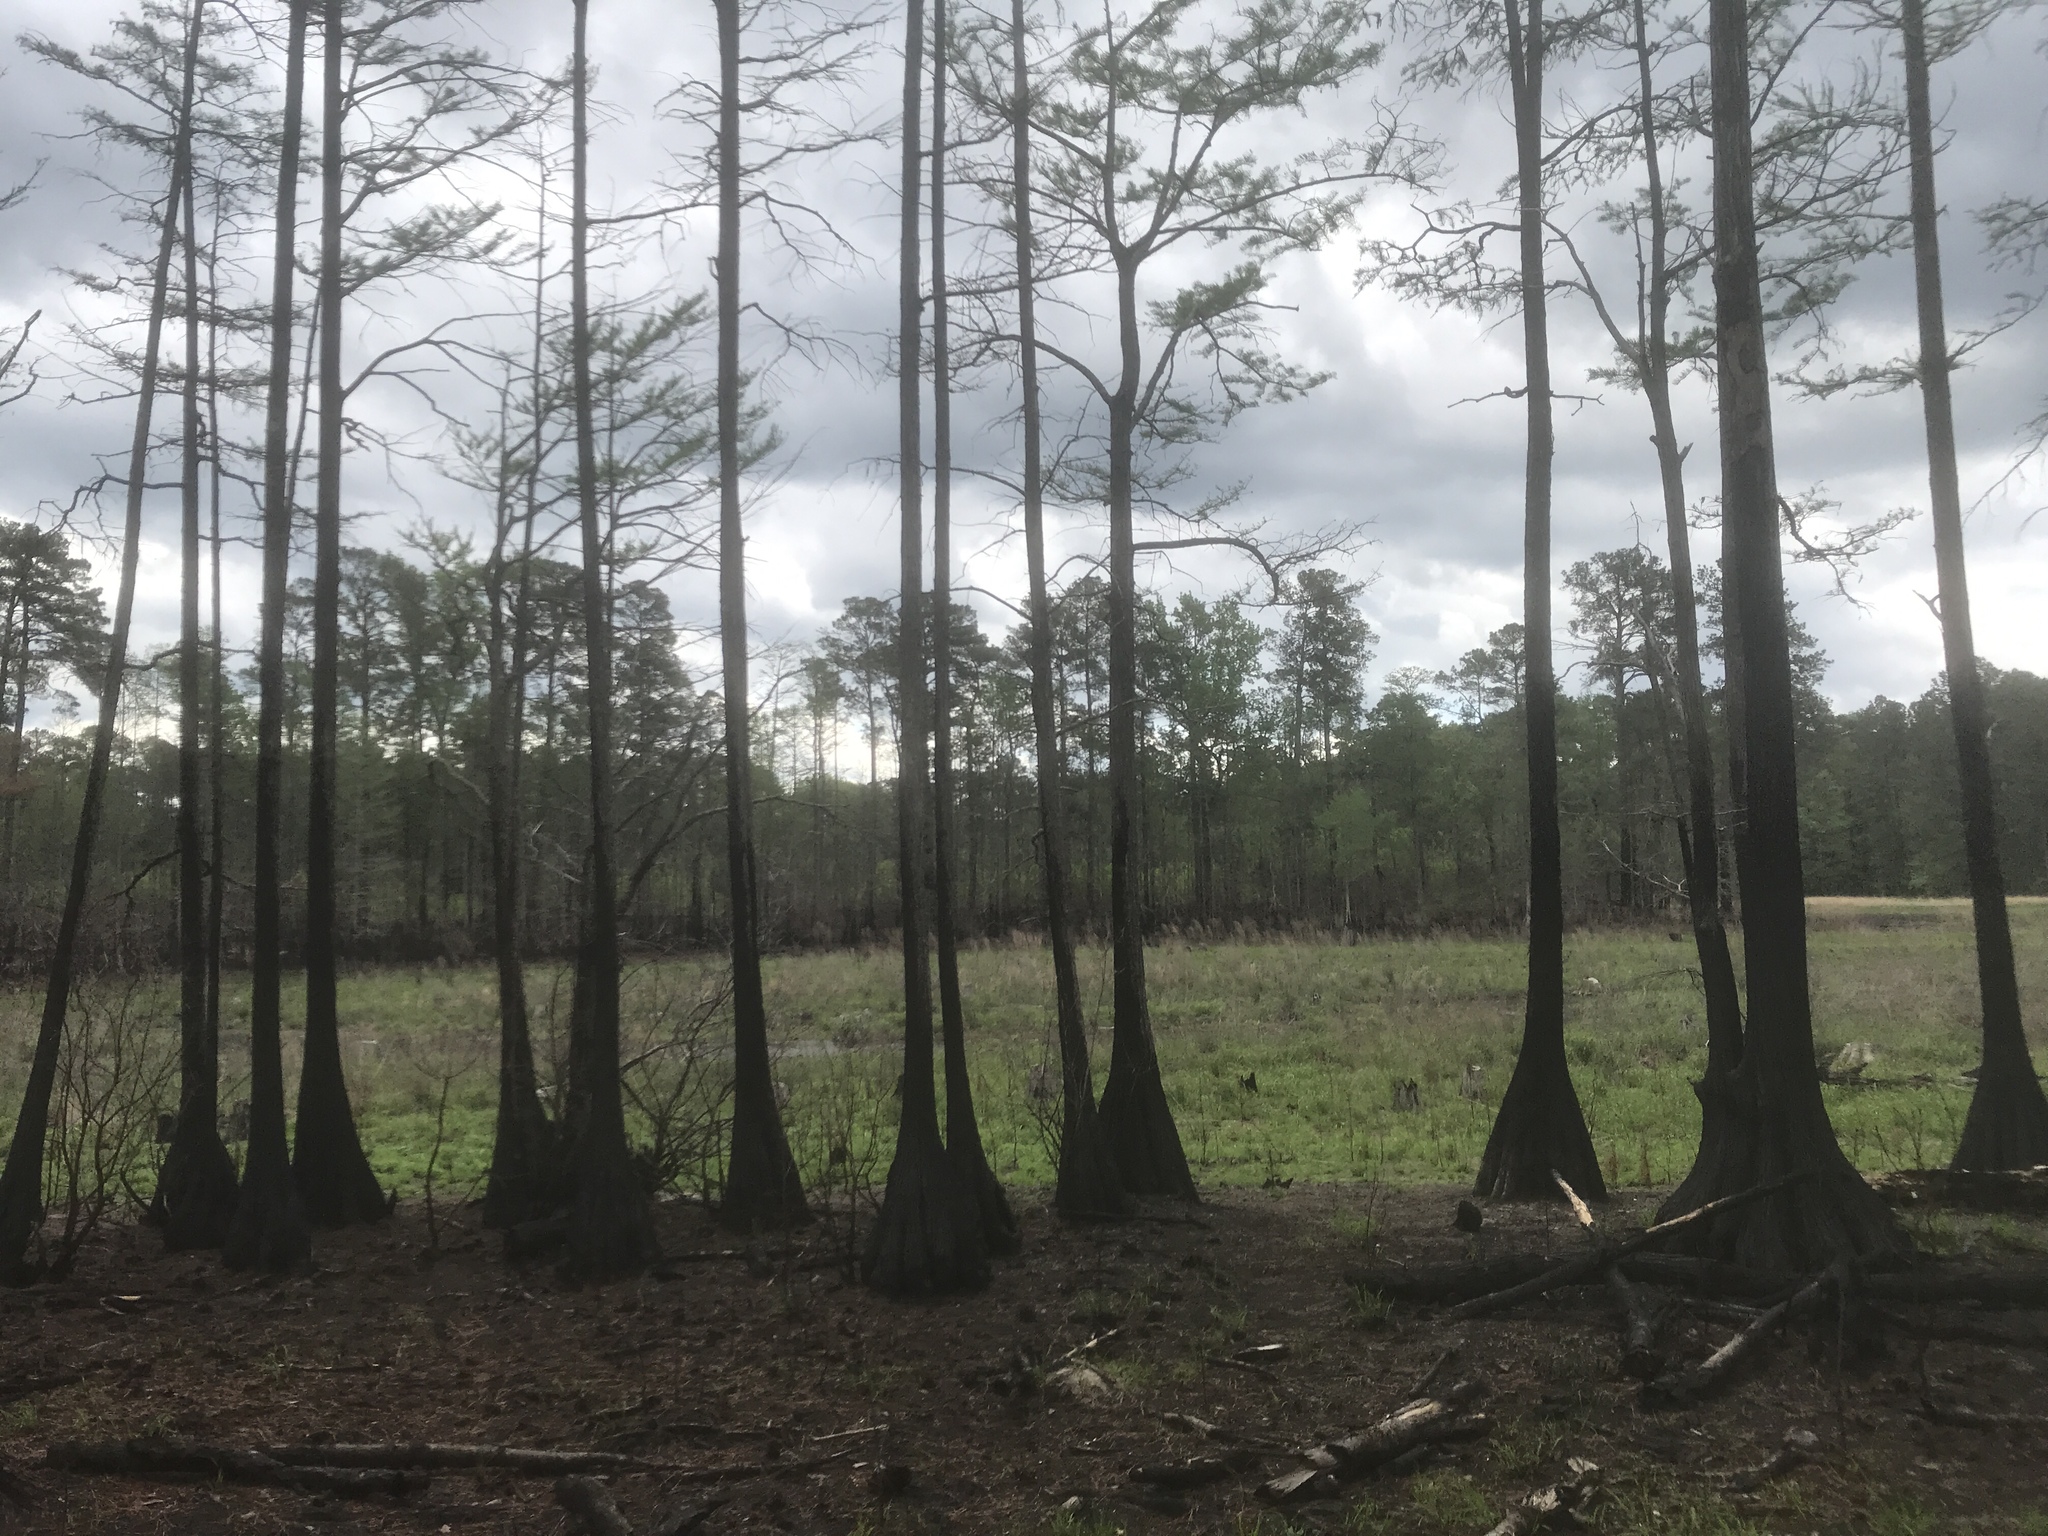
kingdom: Plantae
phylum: Tracheophyta
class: Pinopsida
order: Pinales
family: Cupressaceae
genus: Taxodium
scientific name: Taxodium distichum
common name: Bald cypress
